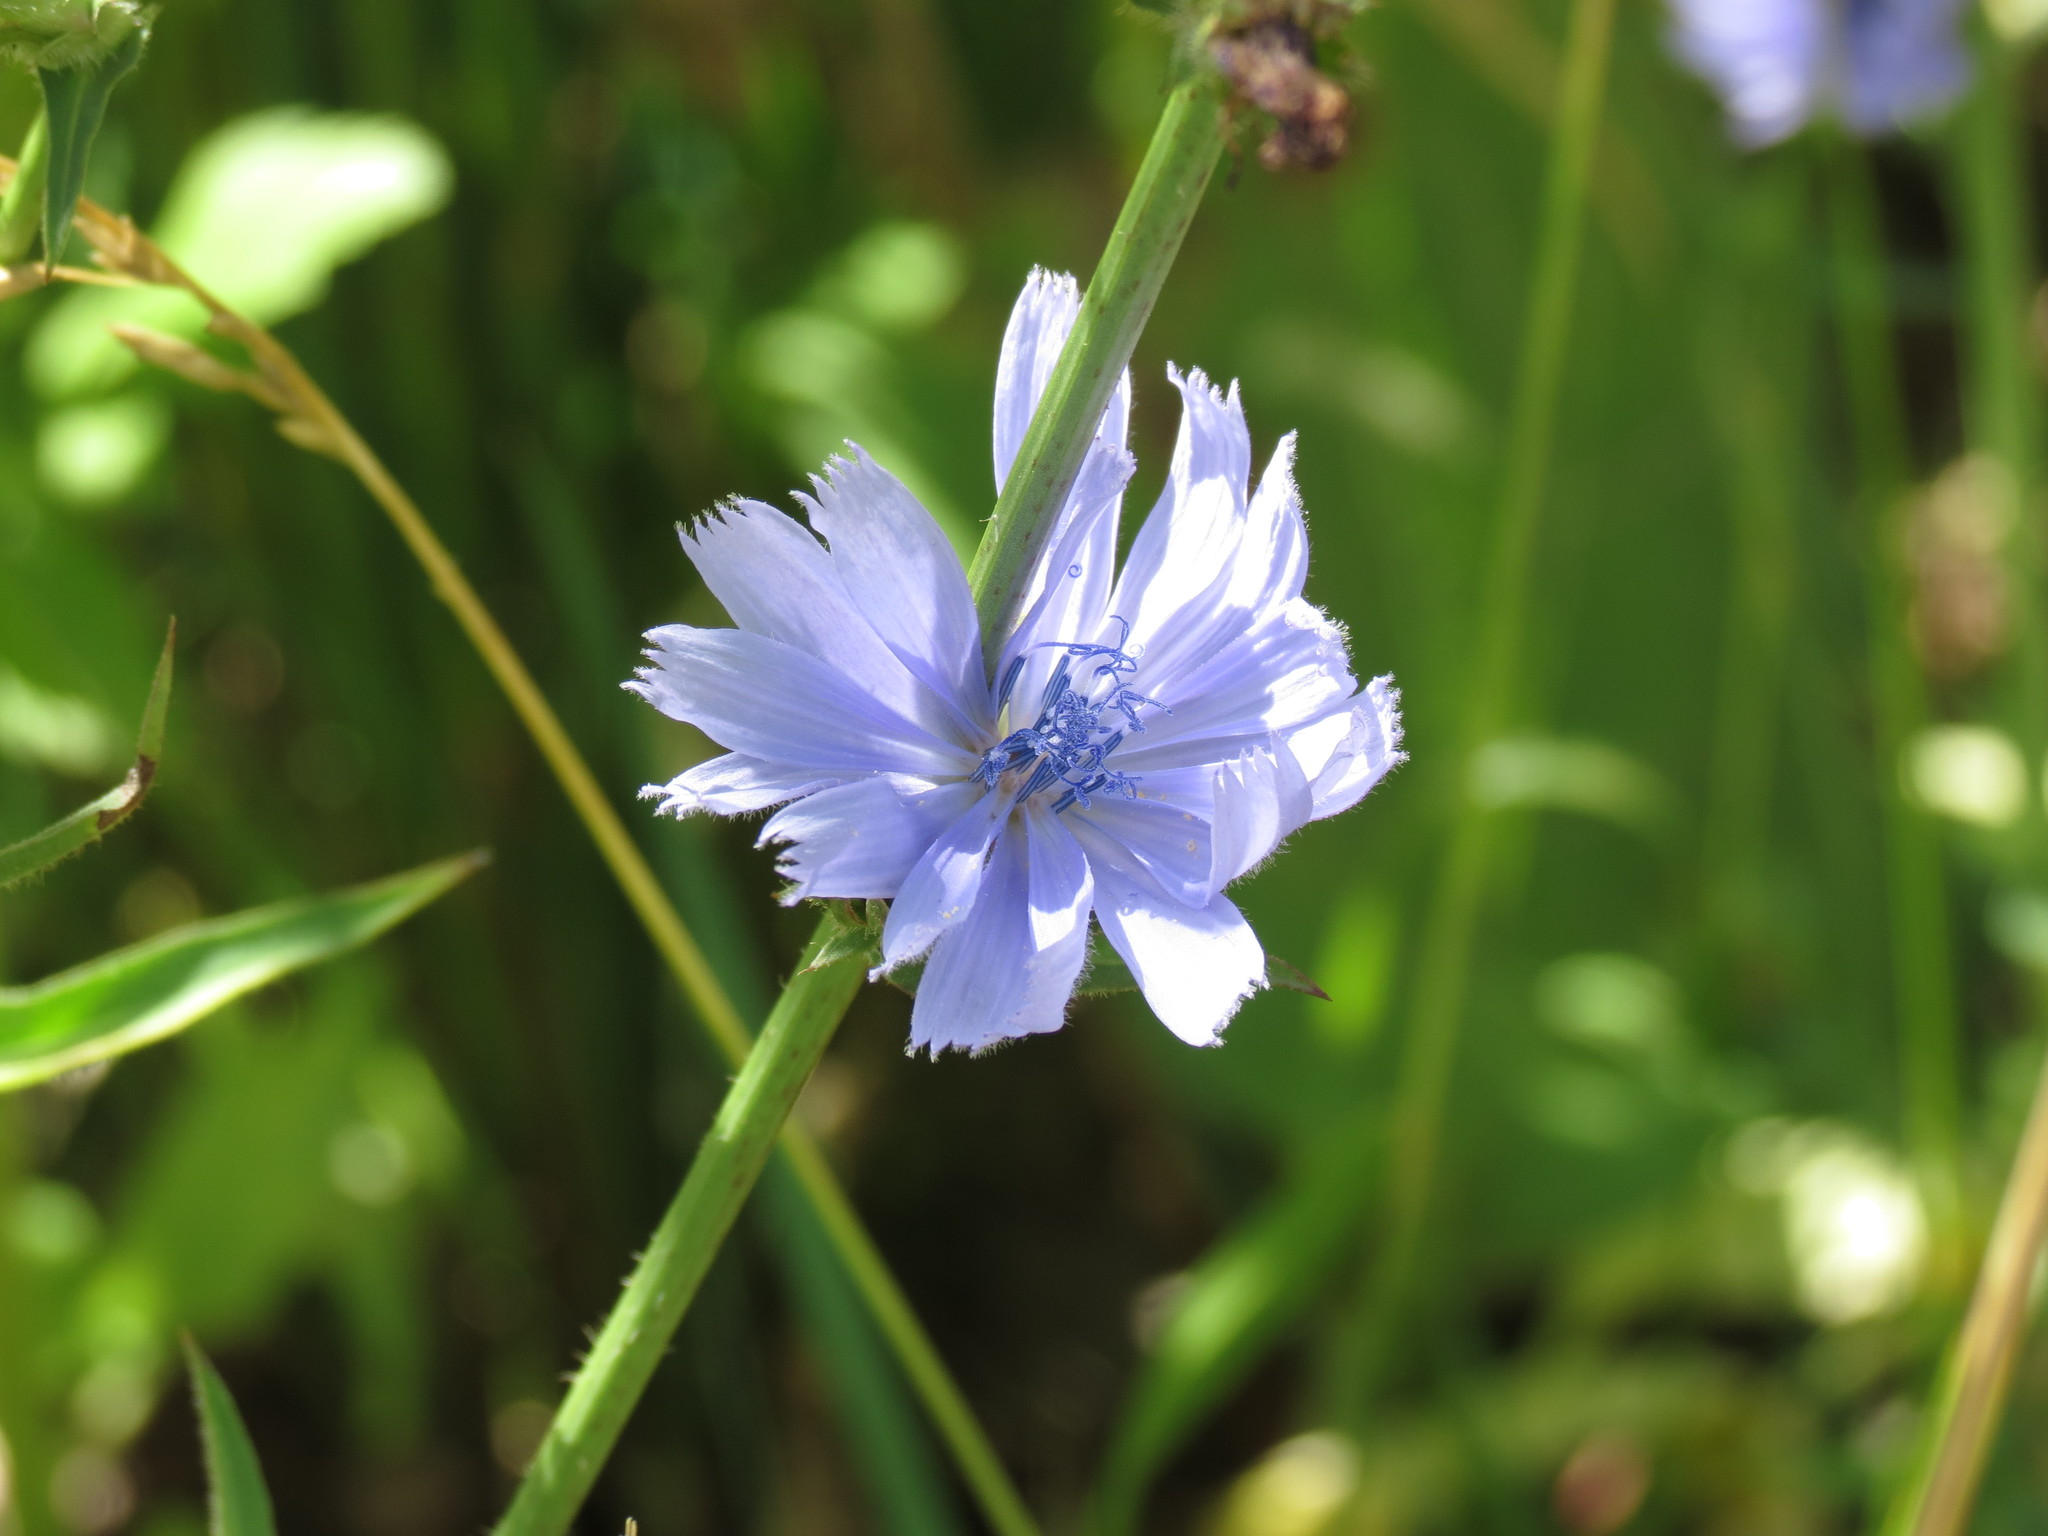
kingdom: Plantae
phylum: Tracheophyta
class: Magnoliopsida
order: Asterales
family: Asteraceae
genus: Cichorium
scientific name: Cichorium intybus
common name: Chicory
